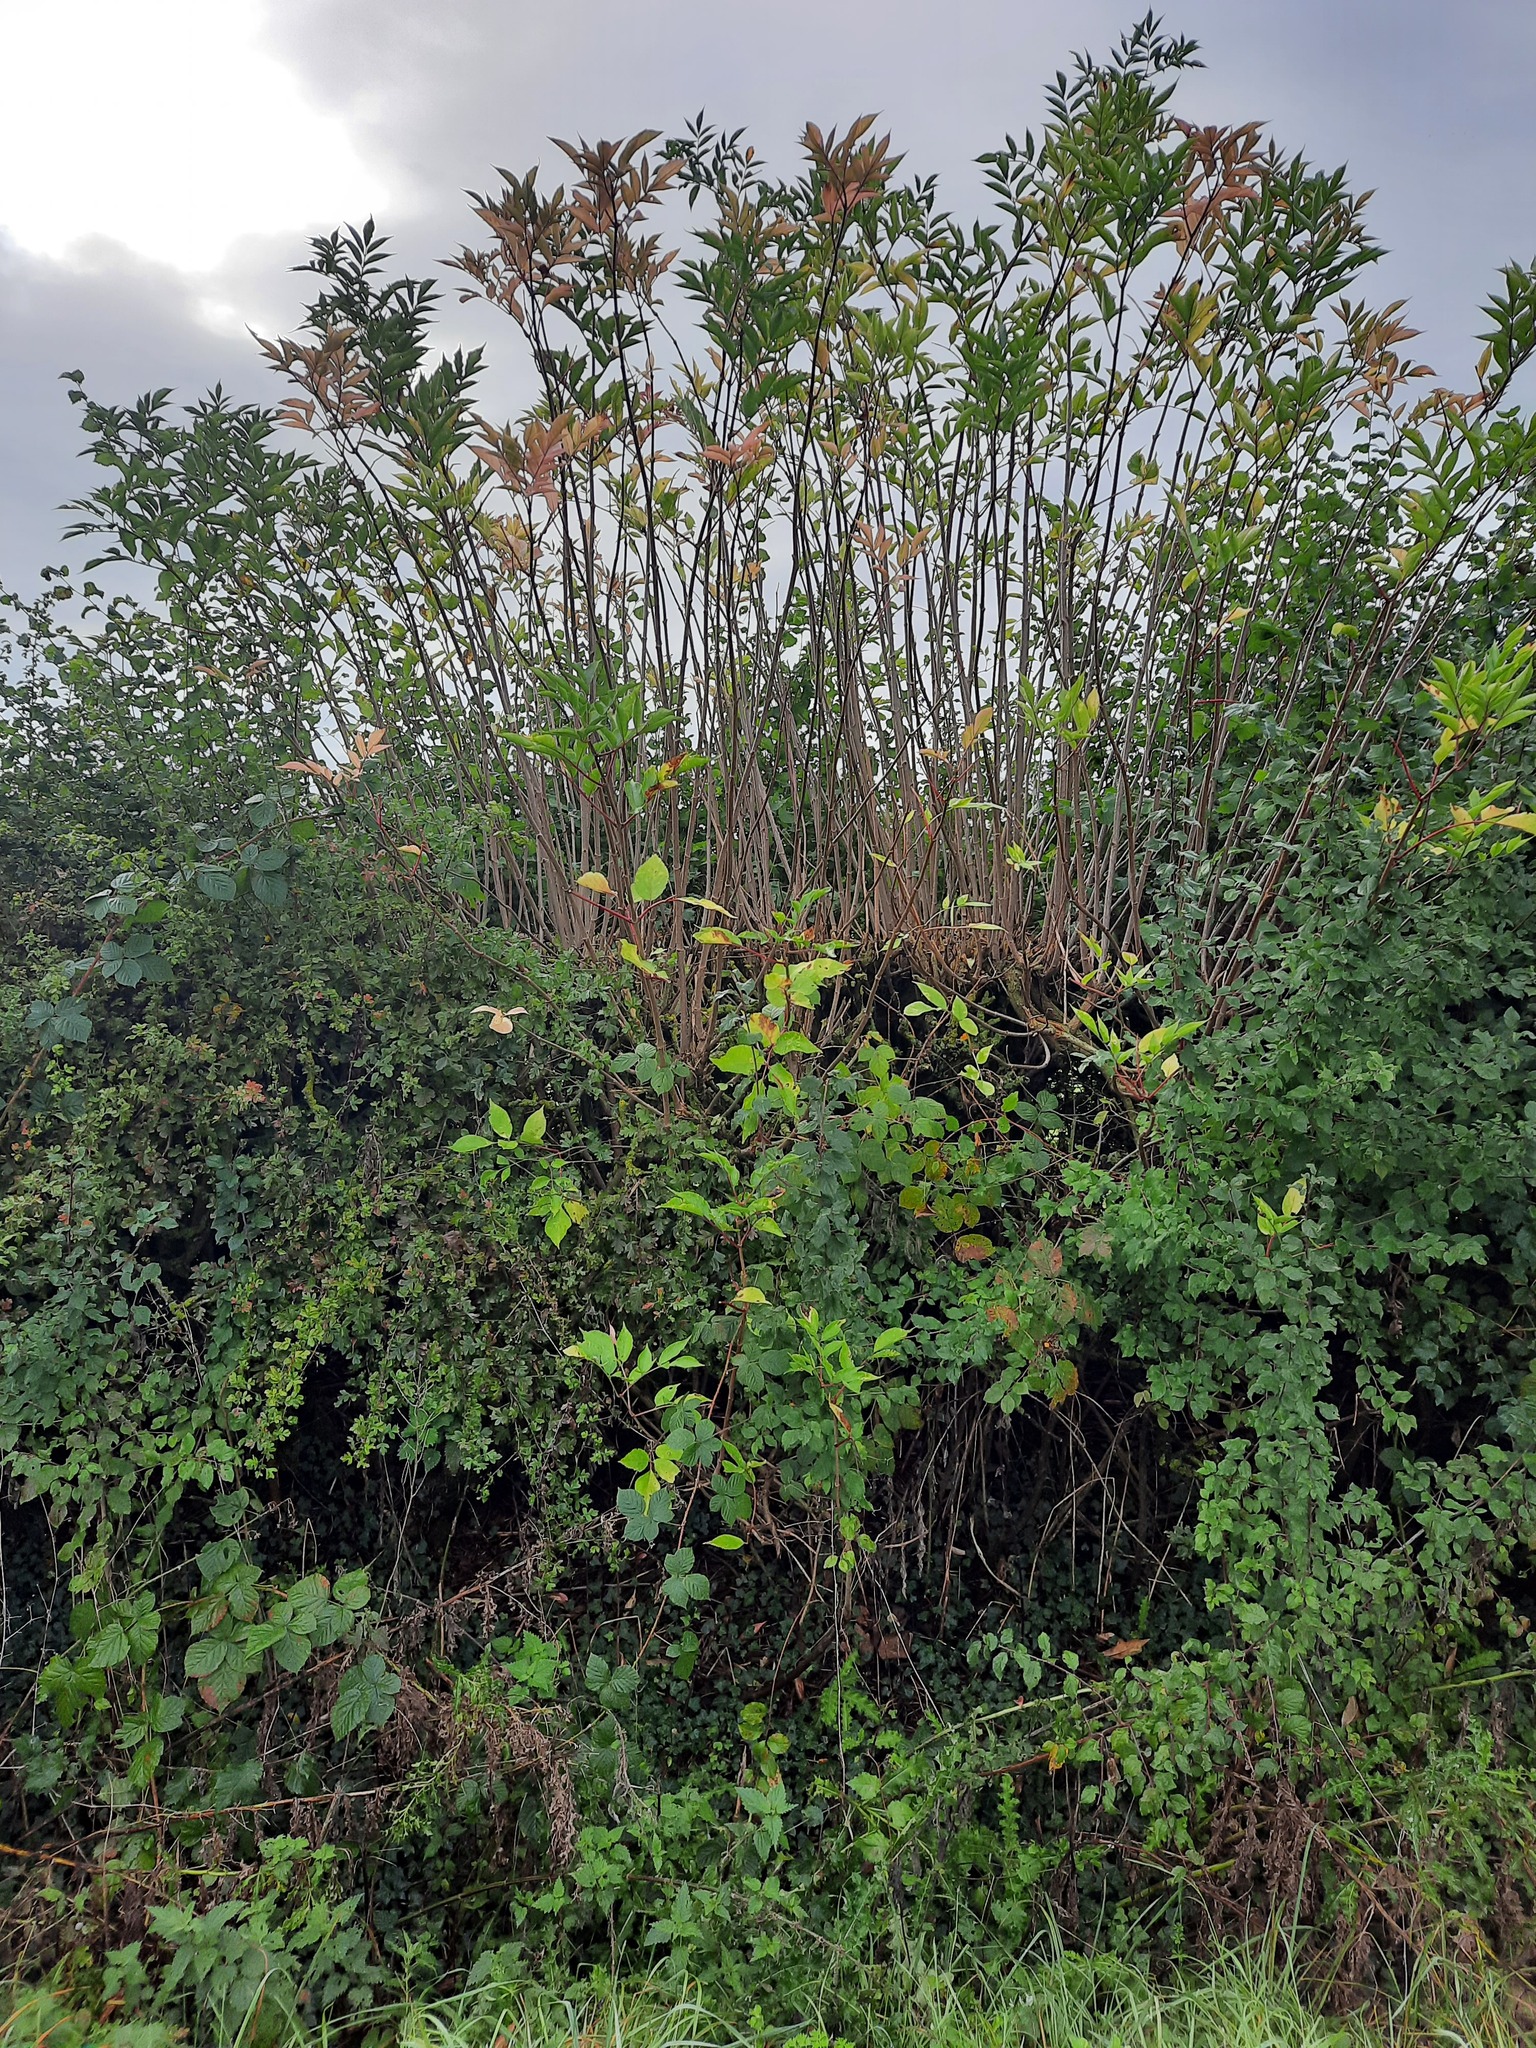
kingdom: Plantae
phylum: Tracheophyta
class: Magnoliopsida
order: Dipsacales
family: Viburnaceae
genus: Sambucus
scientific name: Sambucus nigra
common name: Elder
